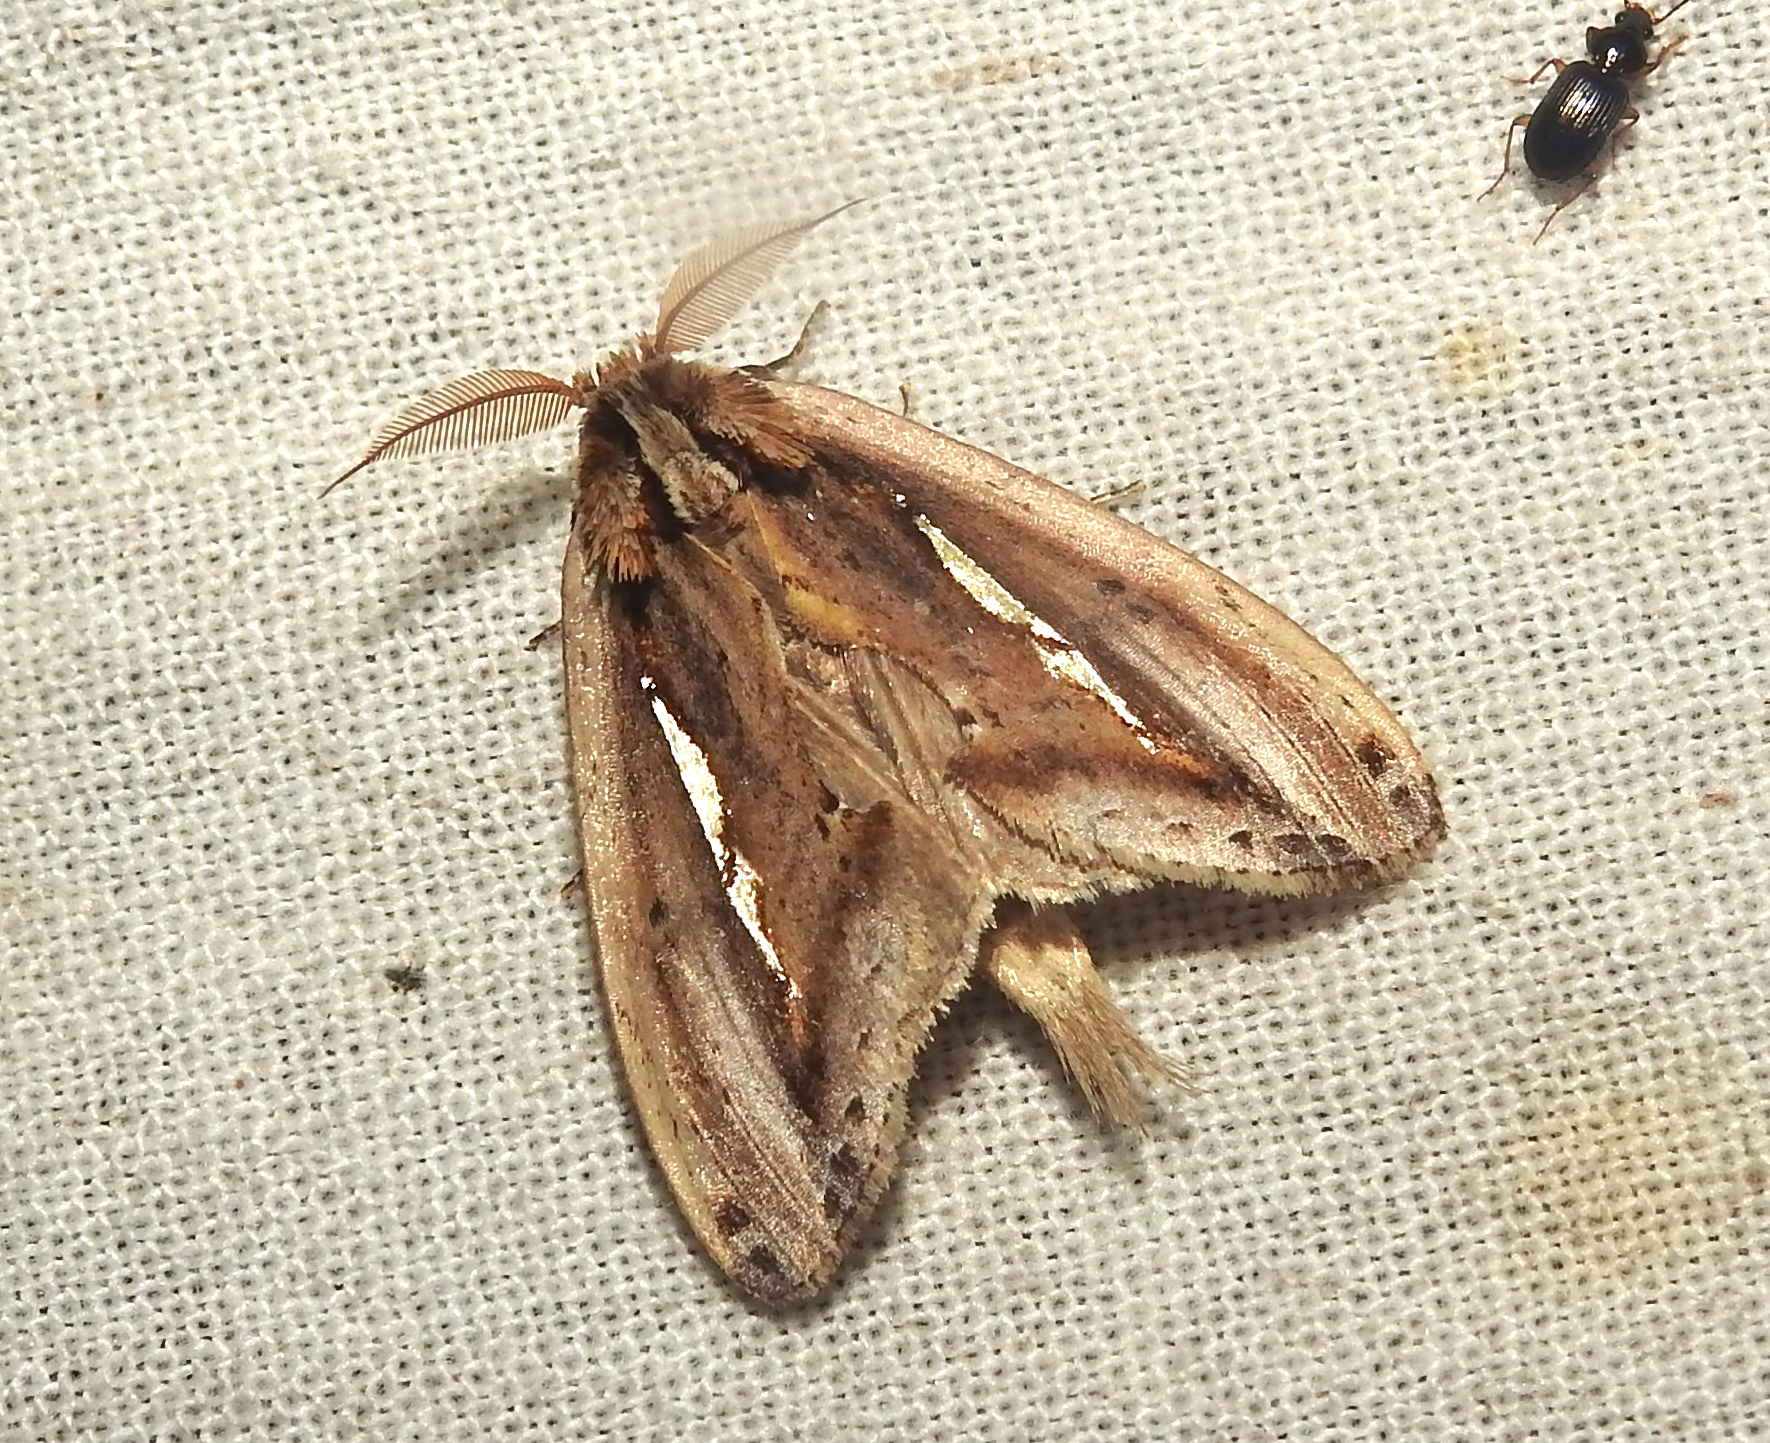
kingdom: Animalia
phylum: Arthropoda
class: Insecta
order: Lepidoptera
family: Notodontidae
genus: Rosama
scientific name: Rosama auritracta
